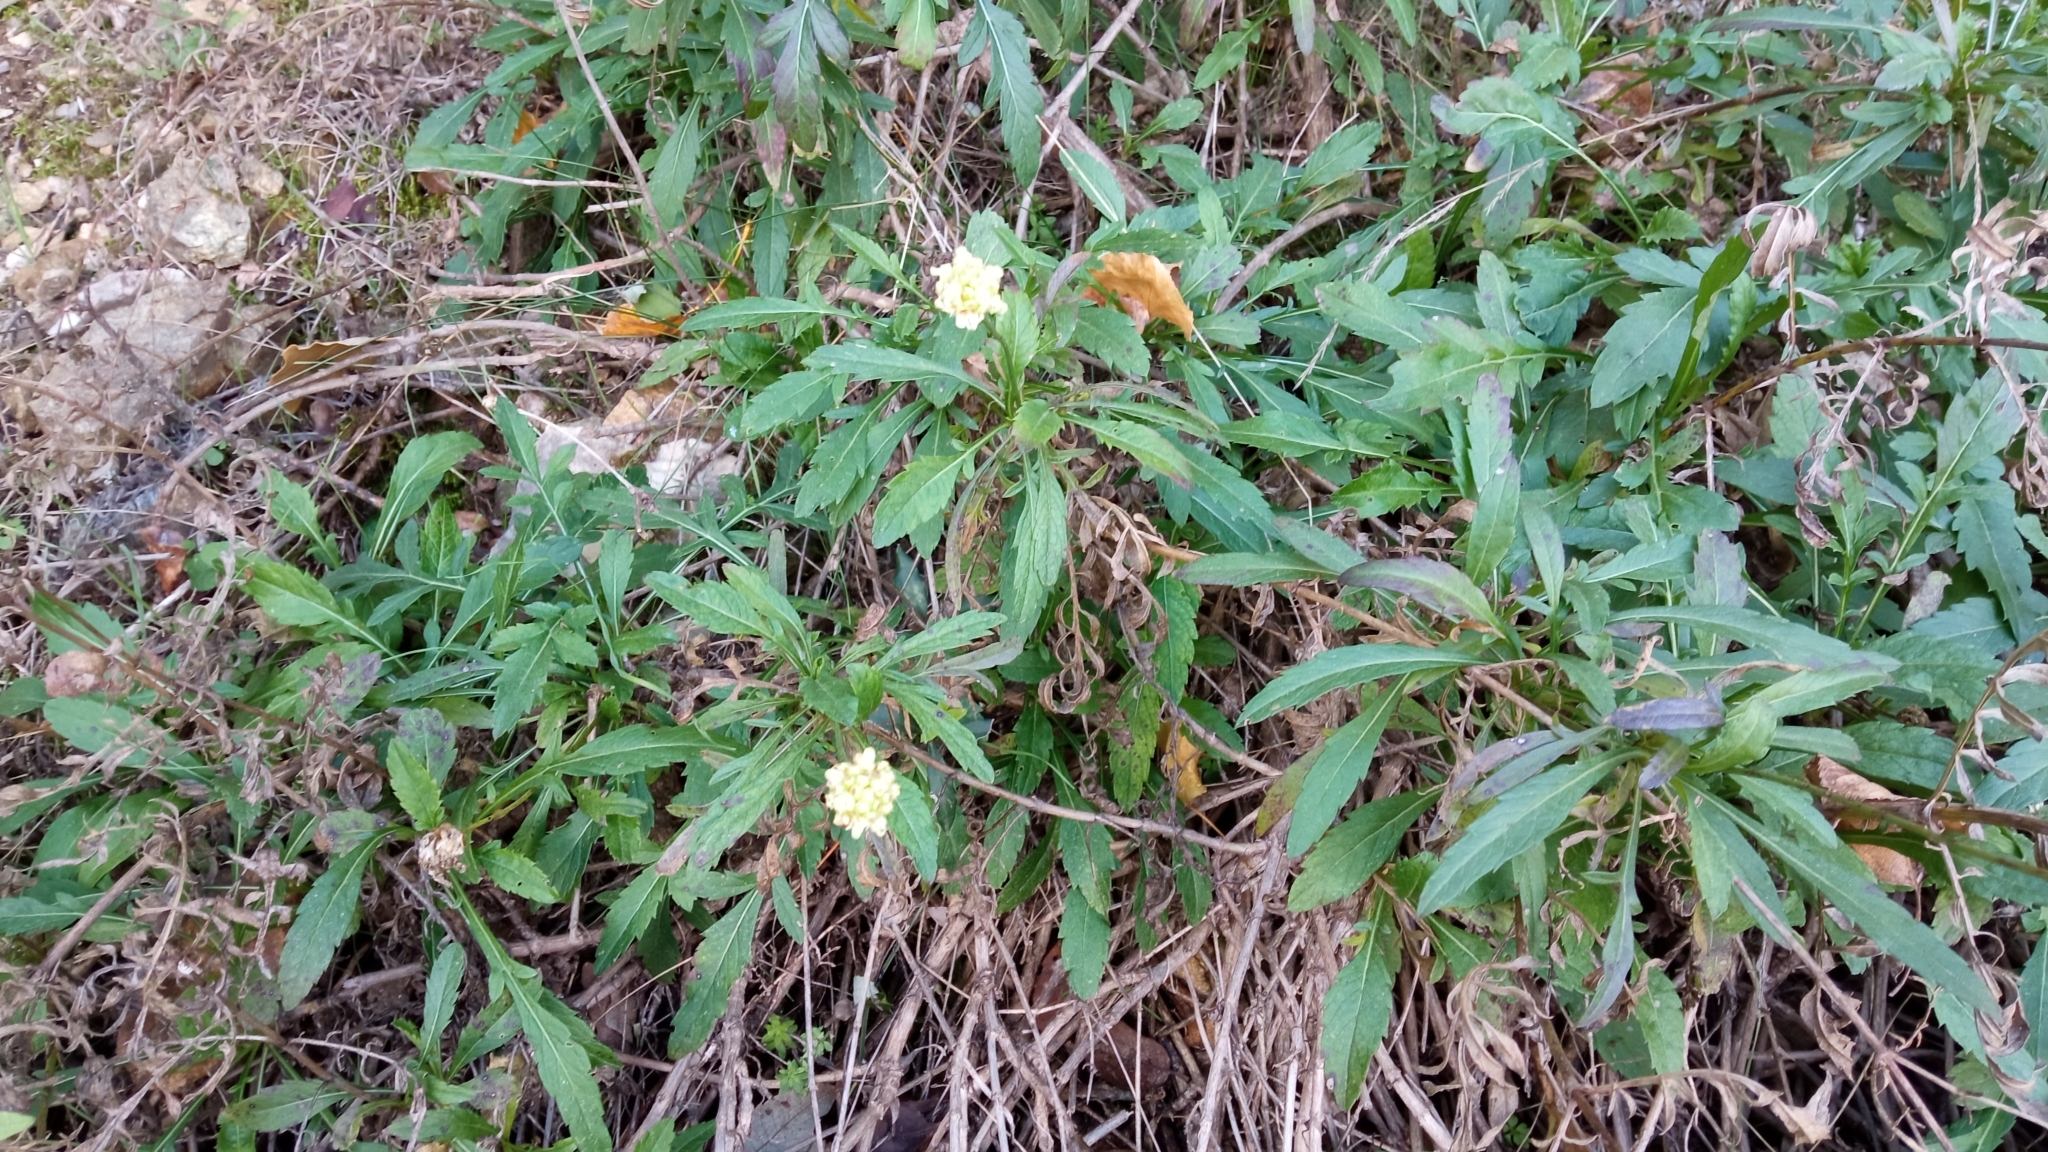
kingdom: Plantae
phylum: Tracheophyta
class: Magnoliopsida
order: Dipsacales
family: Caprifoliaceae
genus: Cephalaria
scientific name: Cephalaria leucantha
